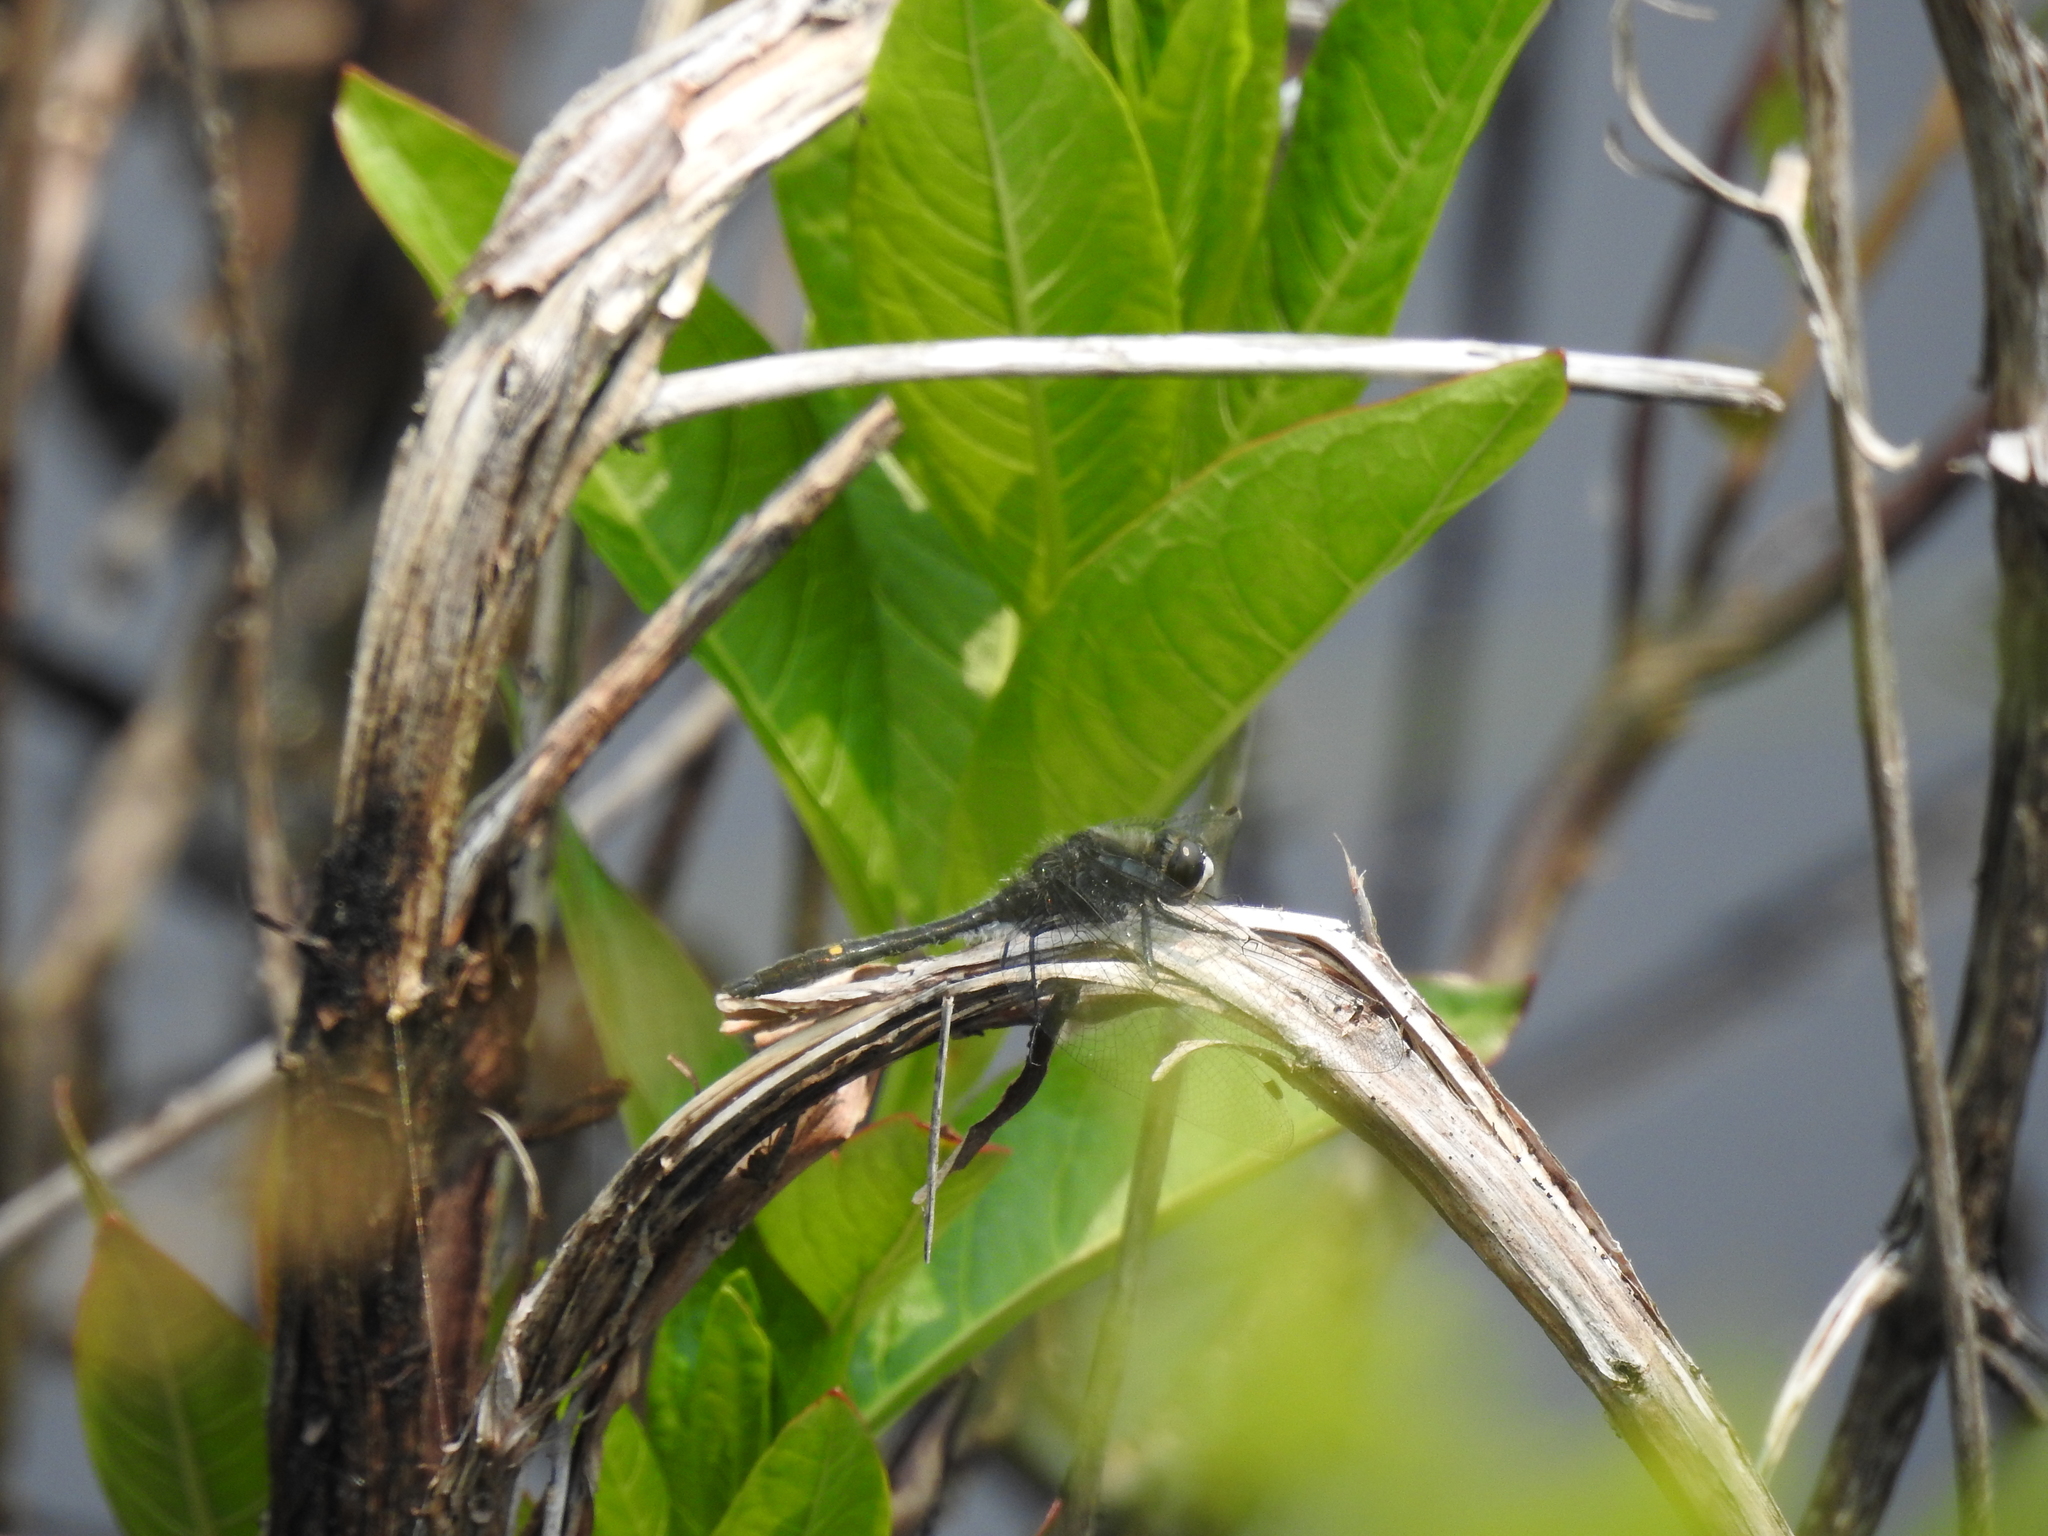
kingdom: Animalia
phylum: Arthropoda
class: Insecta
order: Odonata
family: Libellulidae
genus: Leucorrhinia
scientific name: Leucorrhinia intacta
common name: Dot-tailed whiteface
